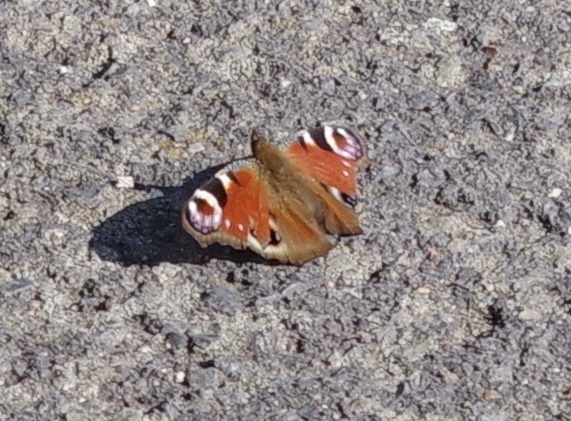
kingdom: Animalia
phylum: Arthropoda
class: Insecta
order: Lepidoptera
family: Nymphalidae
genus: Aglais
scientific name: Aglais io
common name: Peacock
